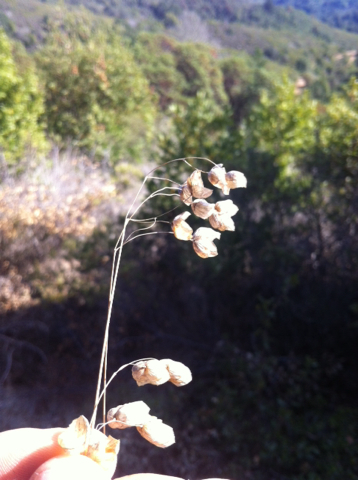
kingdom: Plantae
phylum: Tracheophyta
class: Liliopsida
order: Poales
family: Poaceae
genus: Briza
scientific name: Briza maxima
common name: Big quakinggrass
